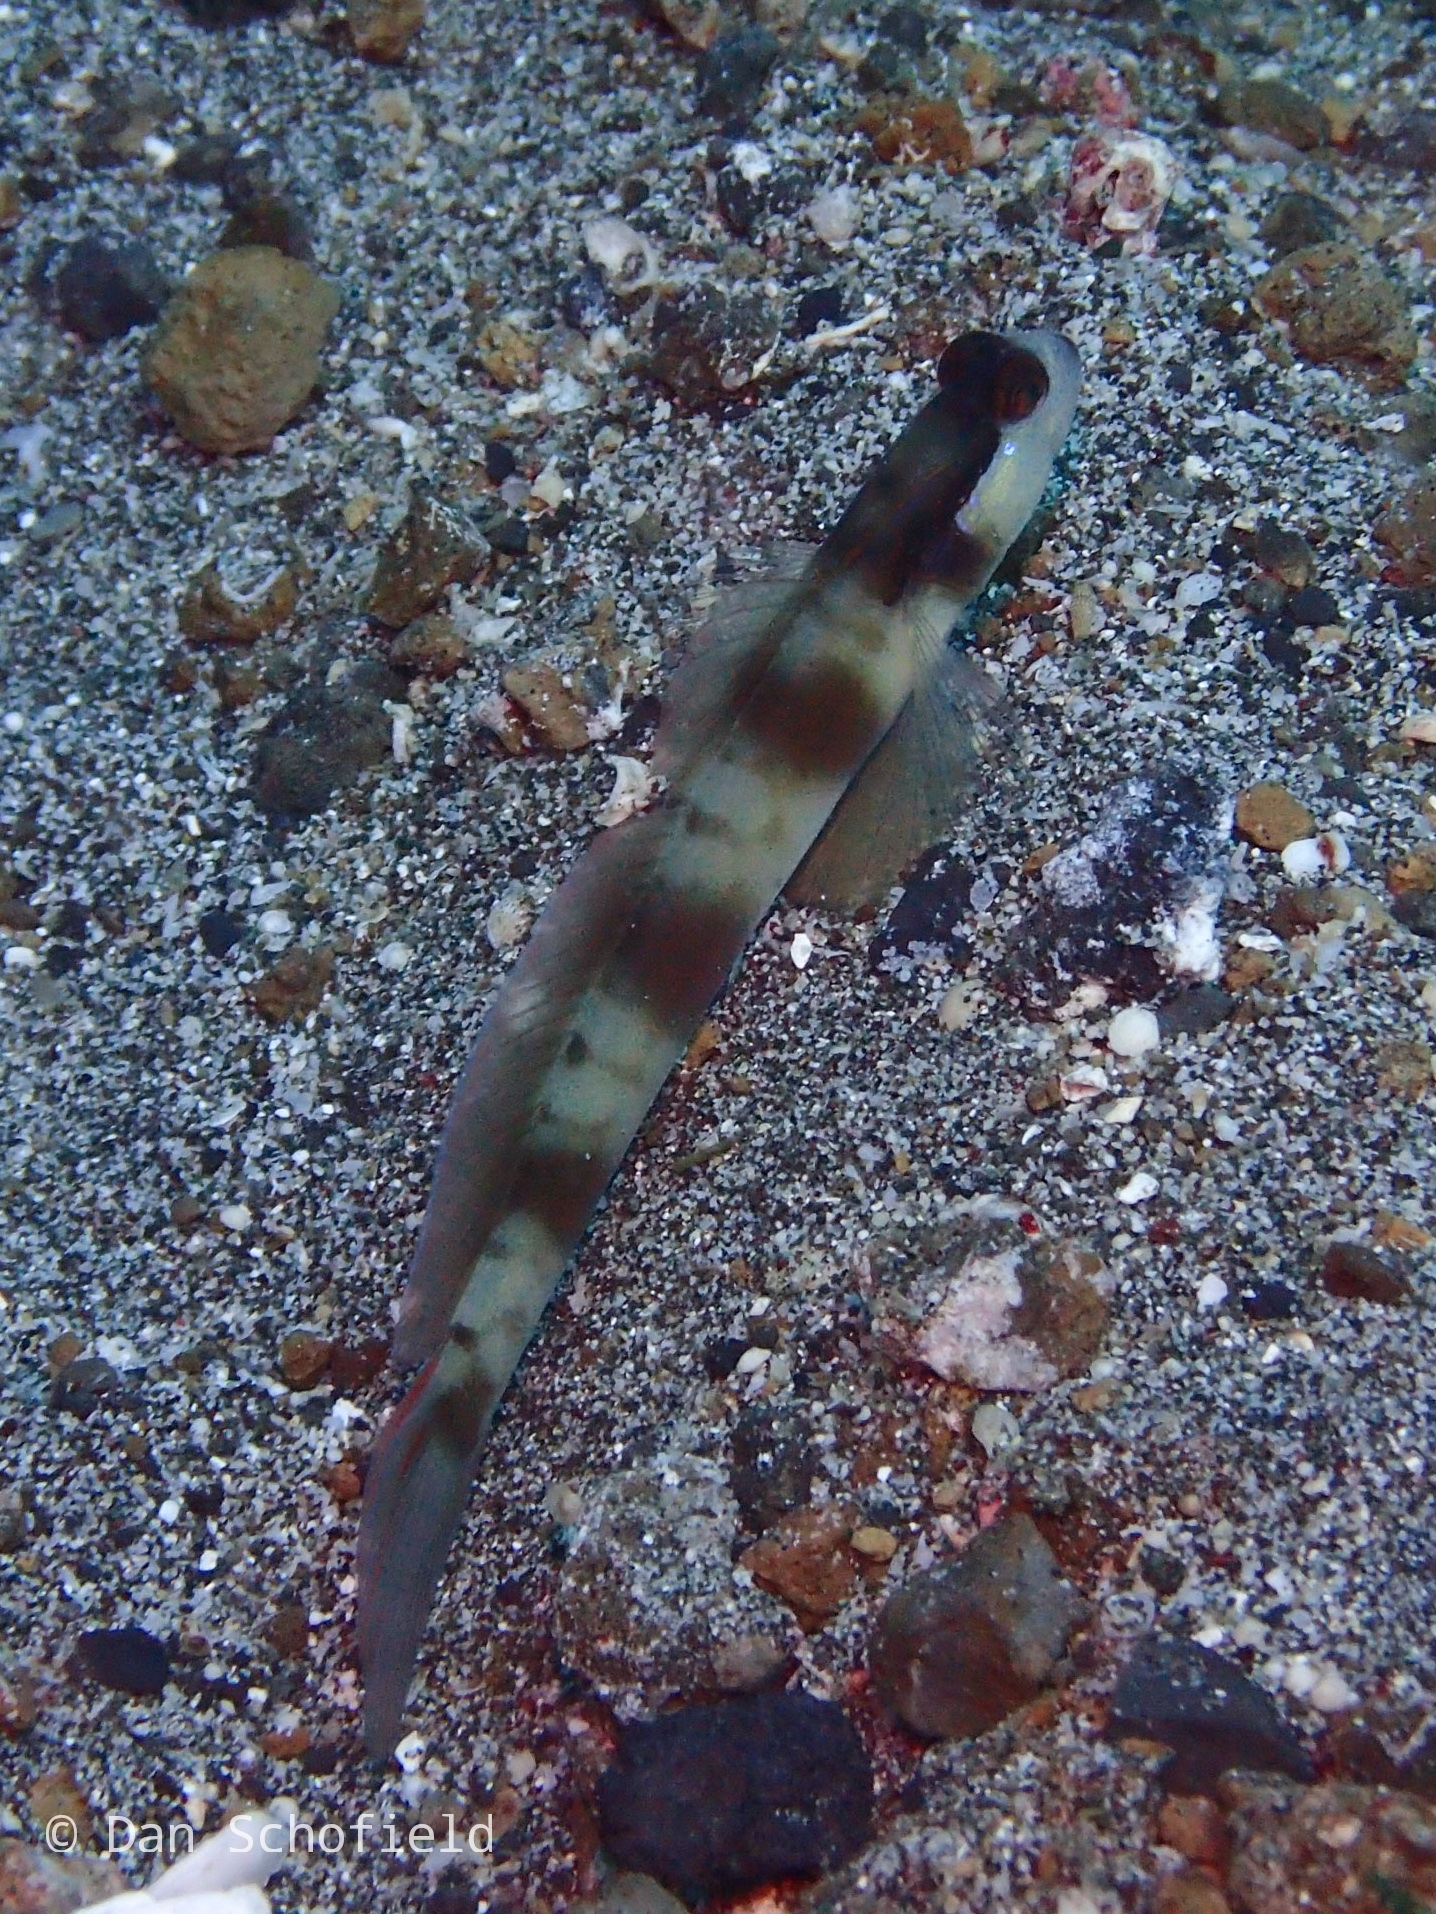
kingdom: Animalia
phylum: Chordata
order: Perciformes
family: Gobiidae
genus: Amblyeleotris
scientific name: Amblyeleotris gymnocephala
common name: Masked shrimpgoby
